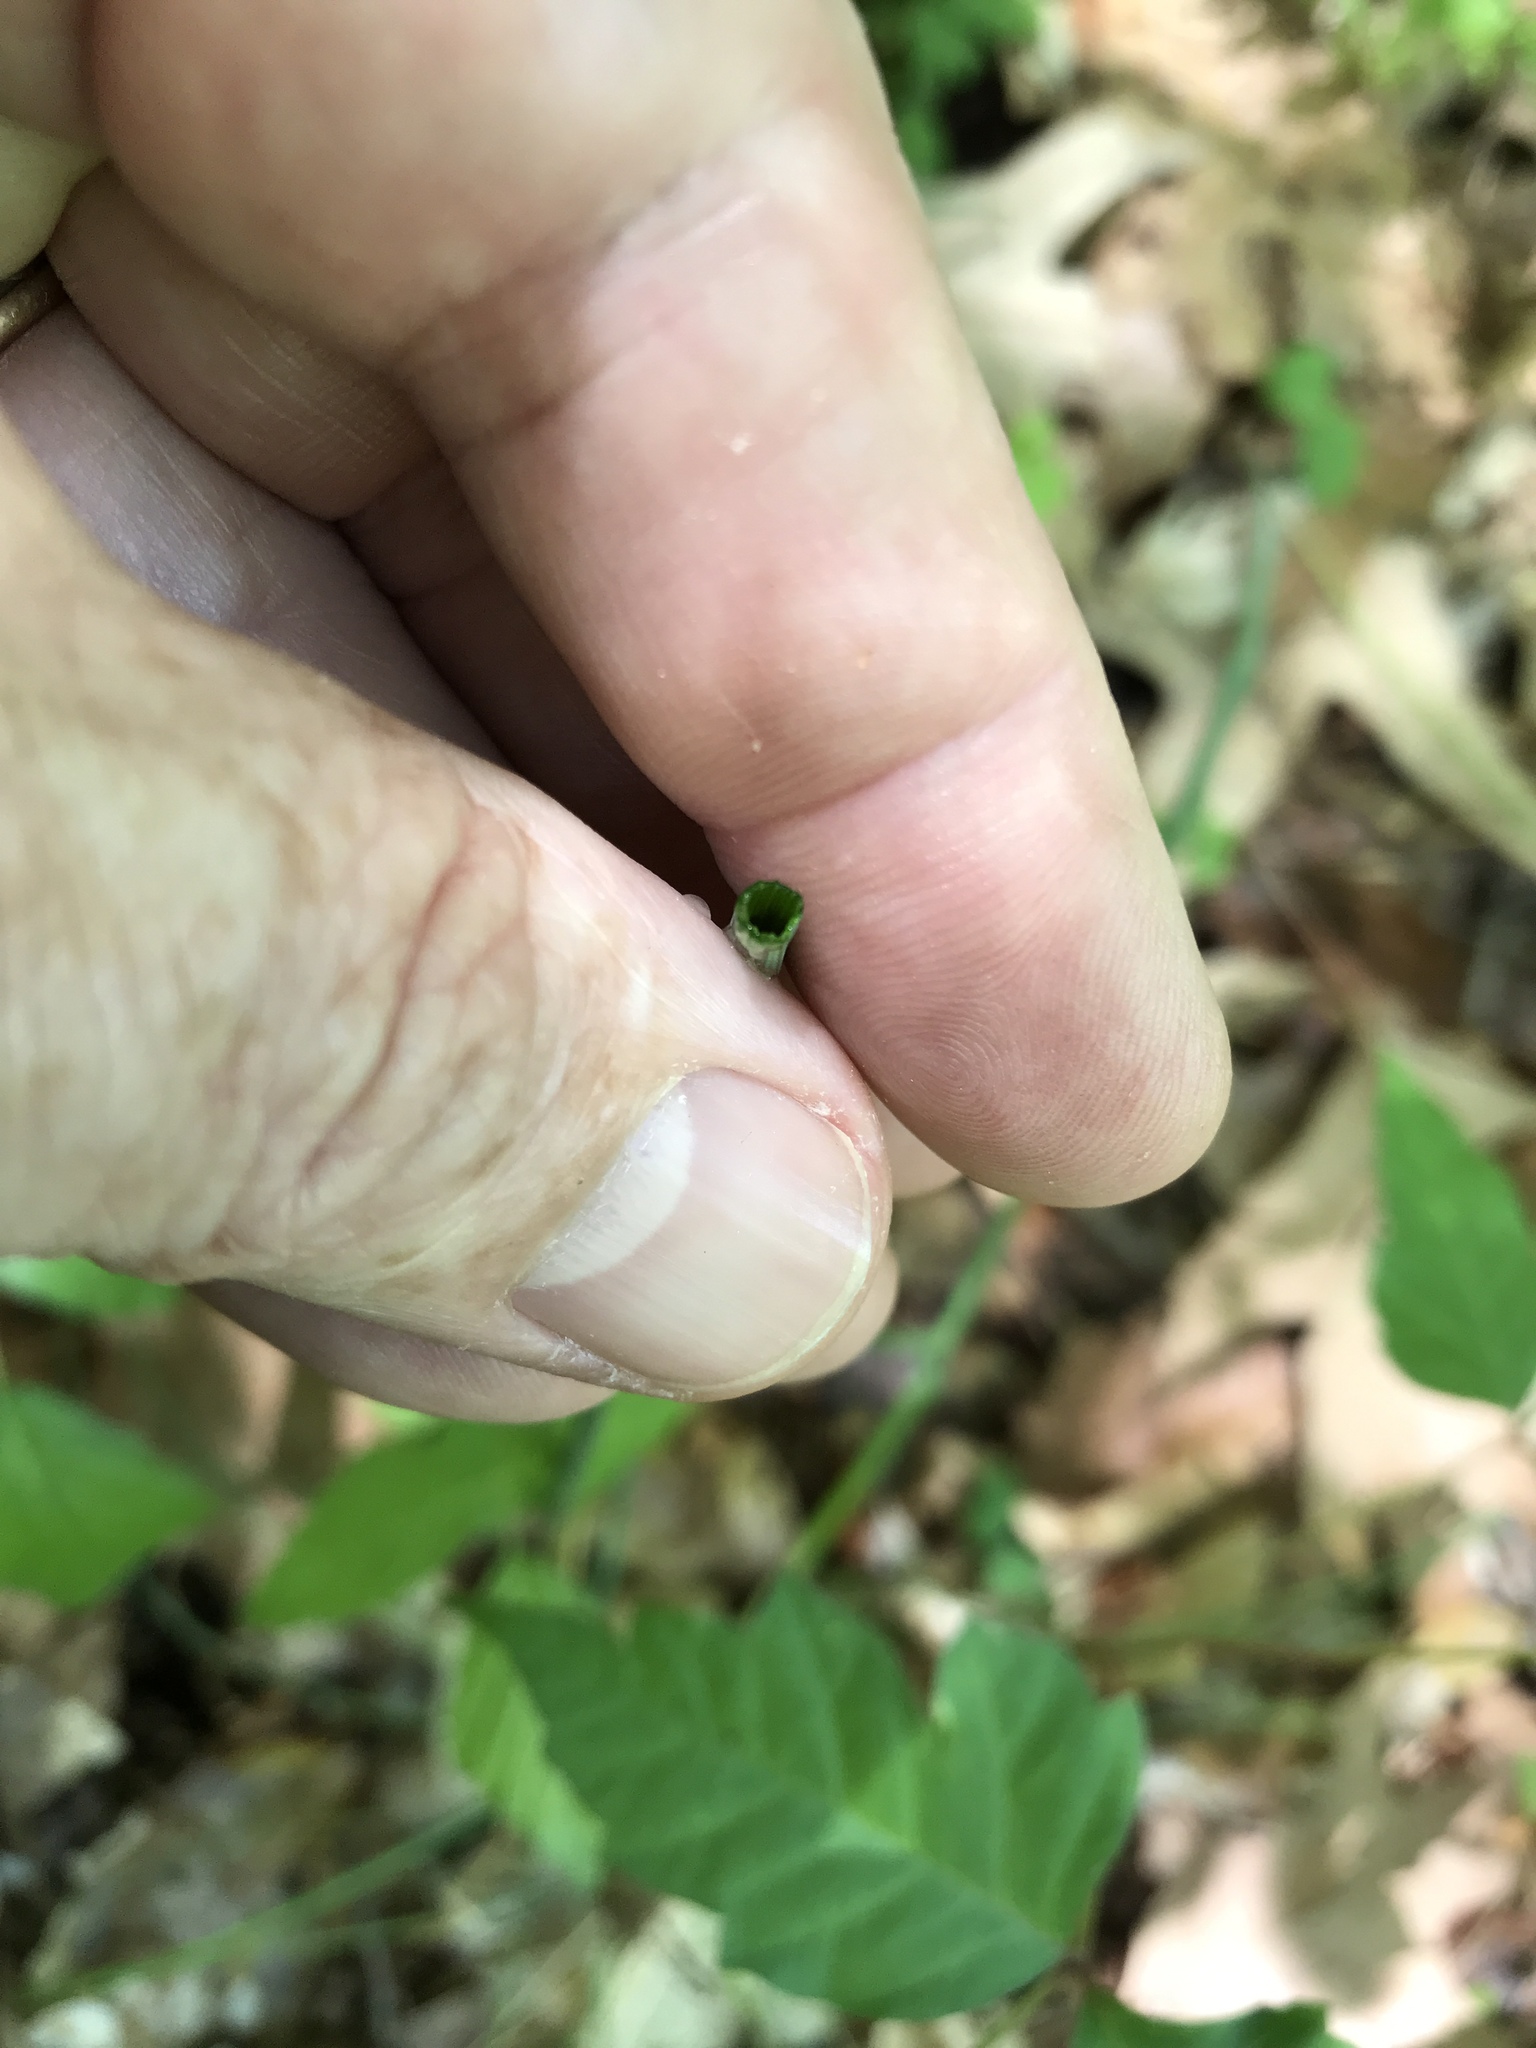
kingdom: Plantae
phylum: Tracheophyta
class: Liliopsida
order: Asparagales
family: Amaryllidaceae
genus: Allium
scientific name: Allium vineale
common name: Crow garlic
